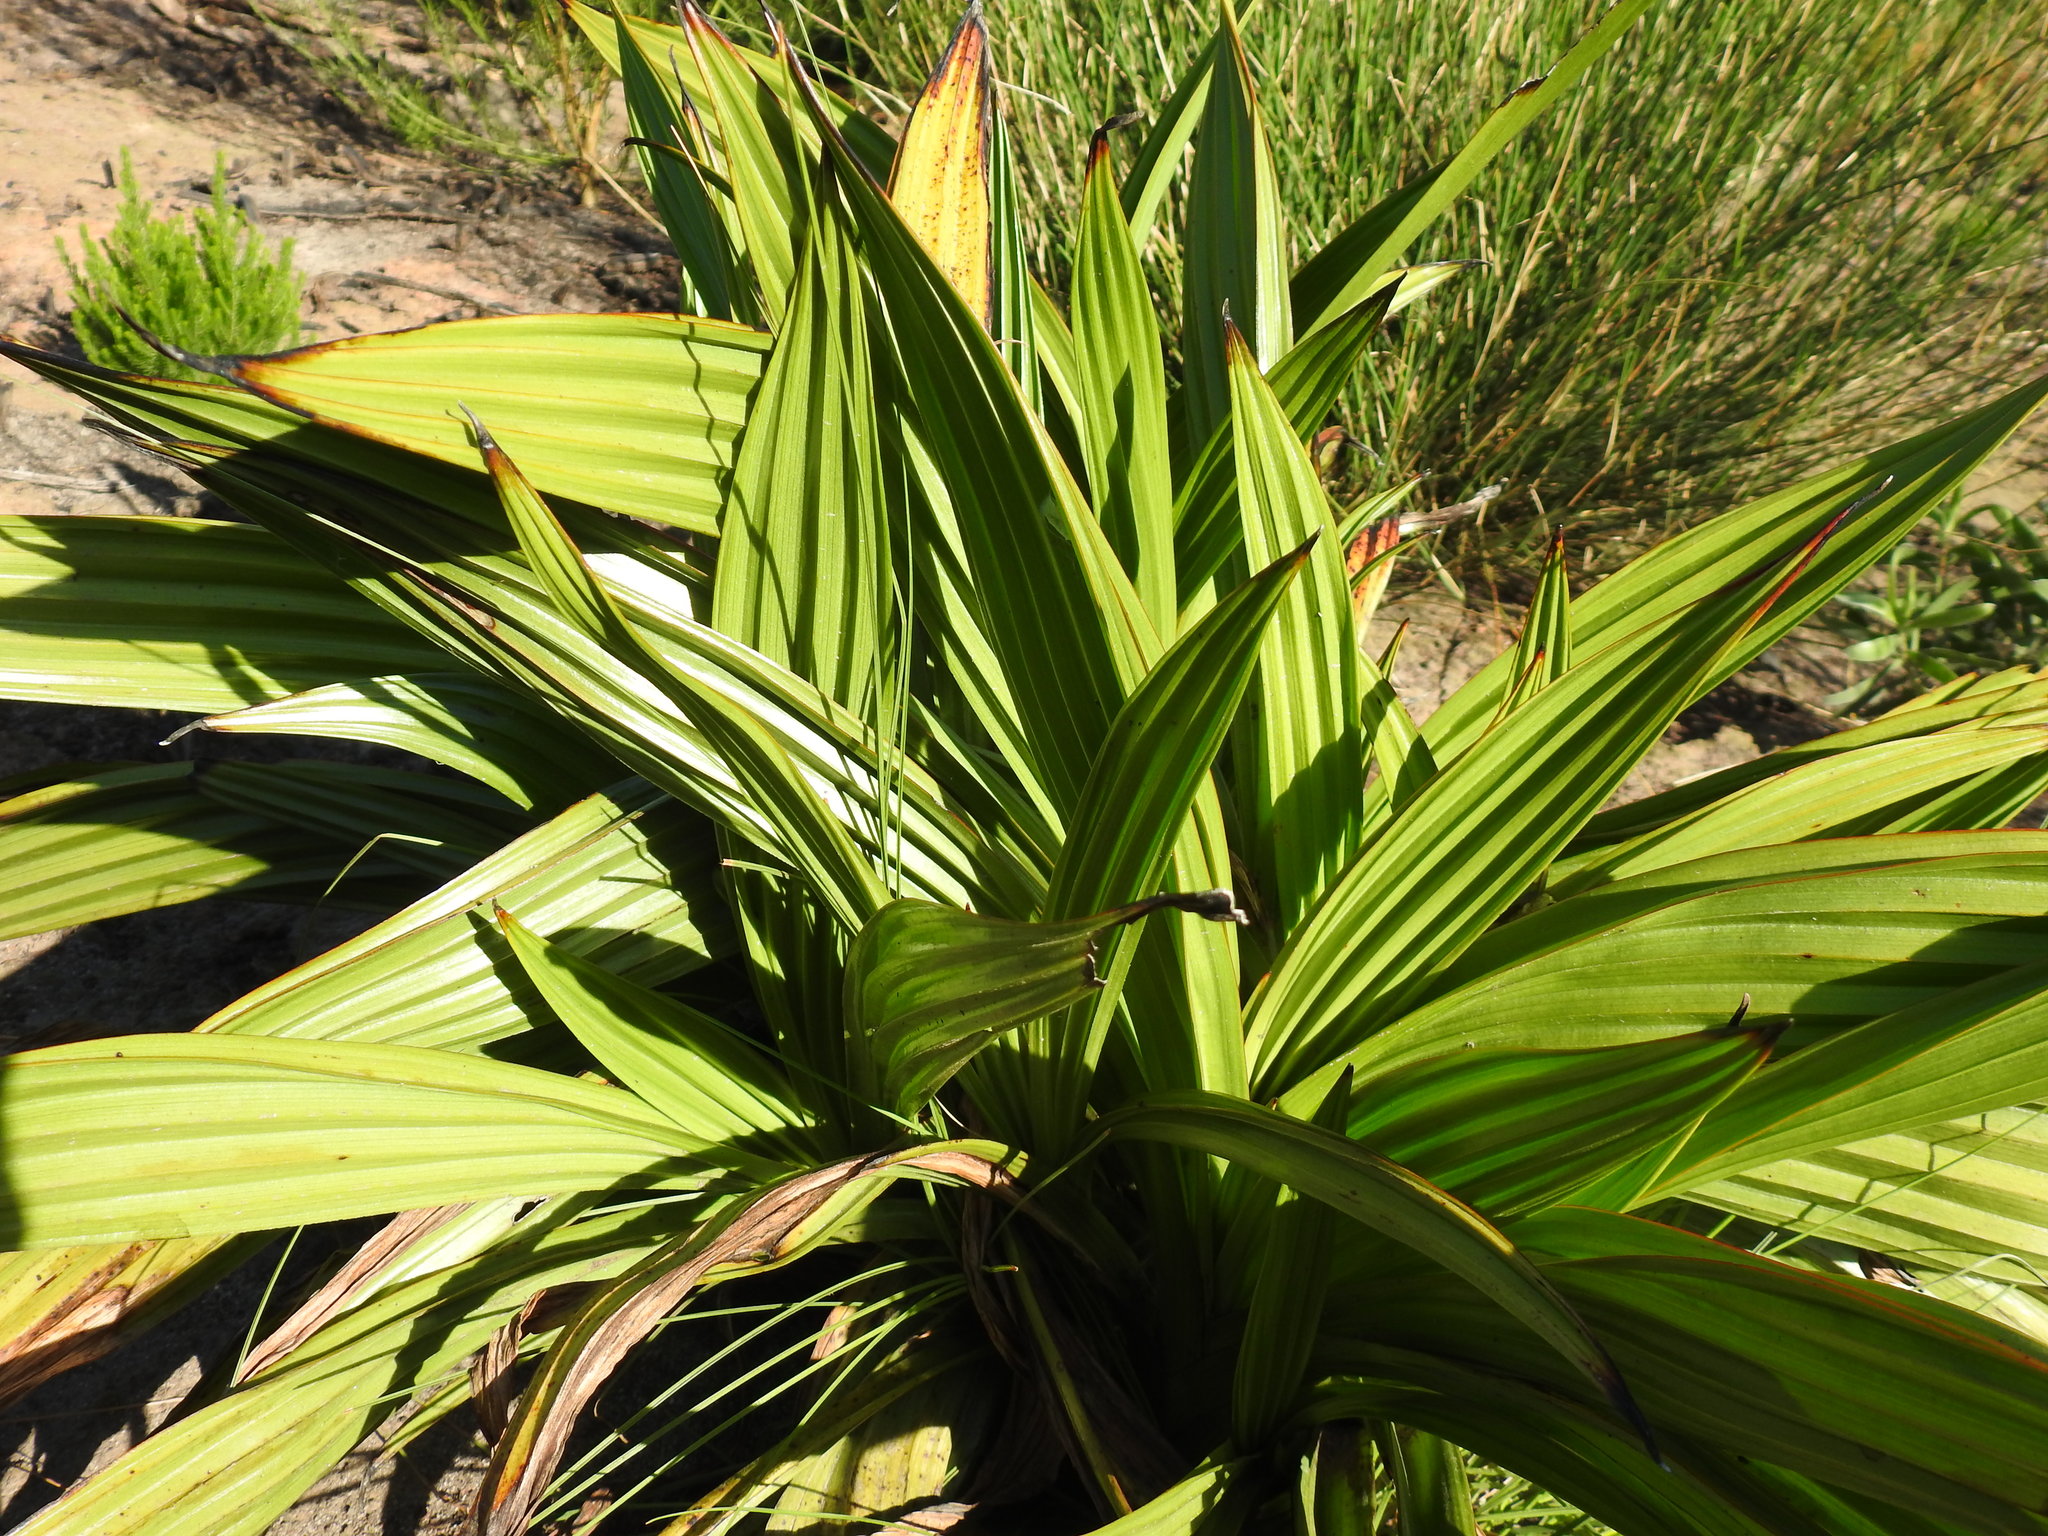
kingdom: Plantae
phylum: Tracheophyta
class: Liliopsida
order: Commelinales
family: Haemodoraceae
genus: Wachendorfia
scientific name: Wachendorfia thyrsiflora
